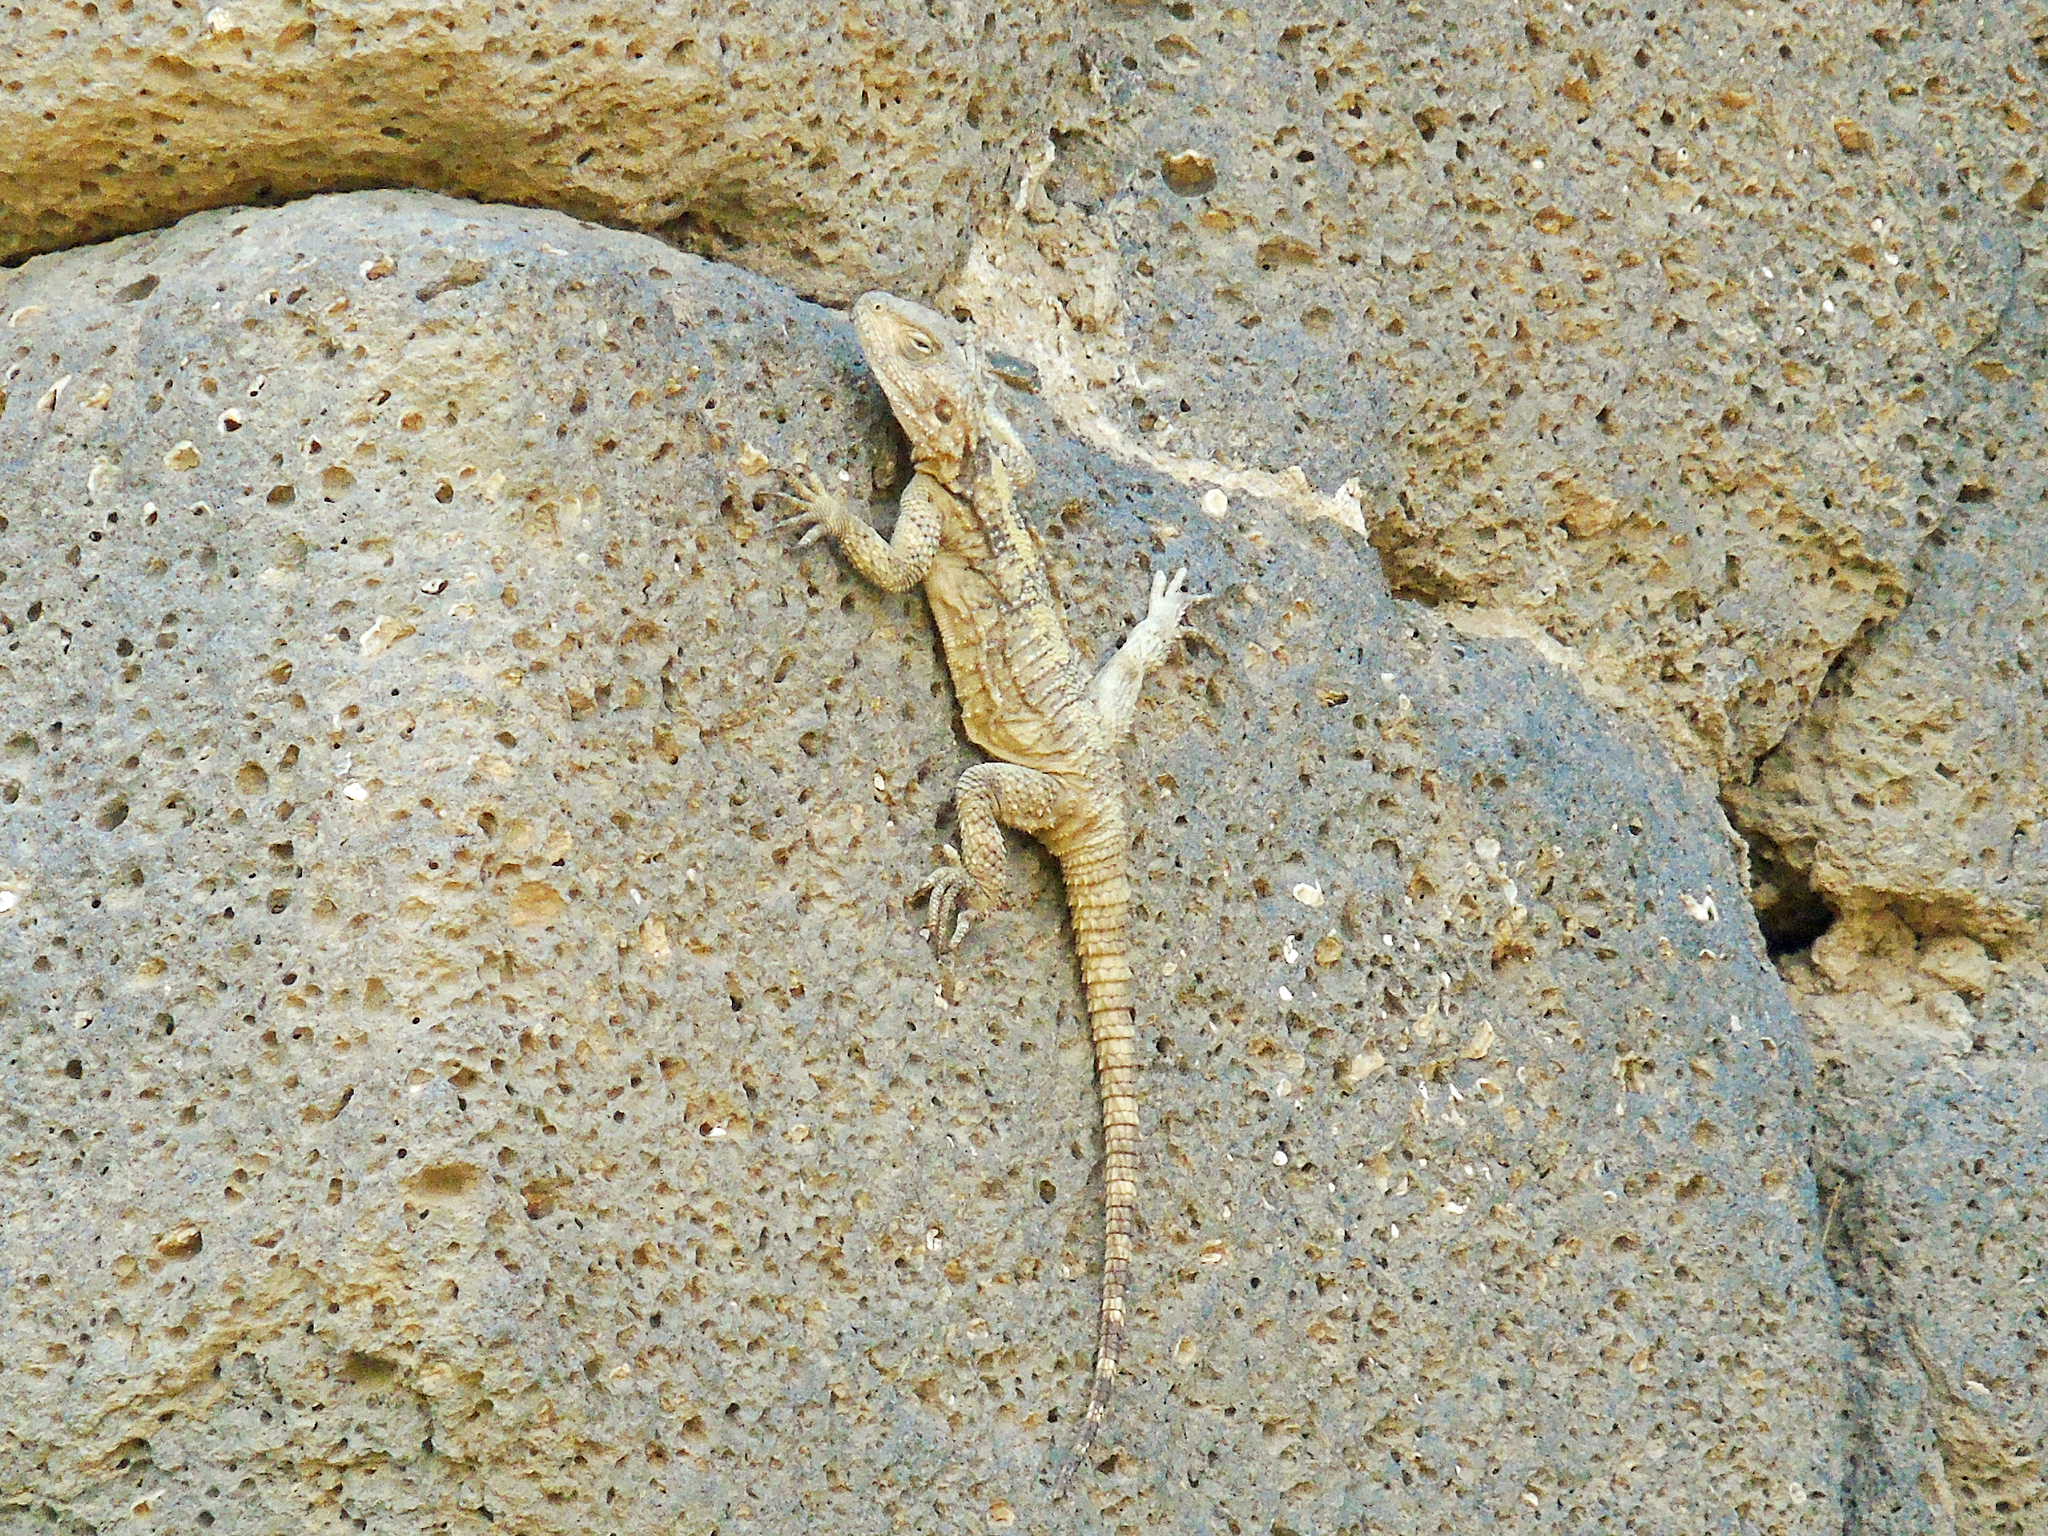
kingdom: Animalia
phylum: Chordata
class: Squamata
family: Agamidae
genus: Stellagama
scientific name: Stellagama stellio
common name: Starred agama
